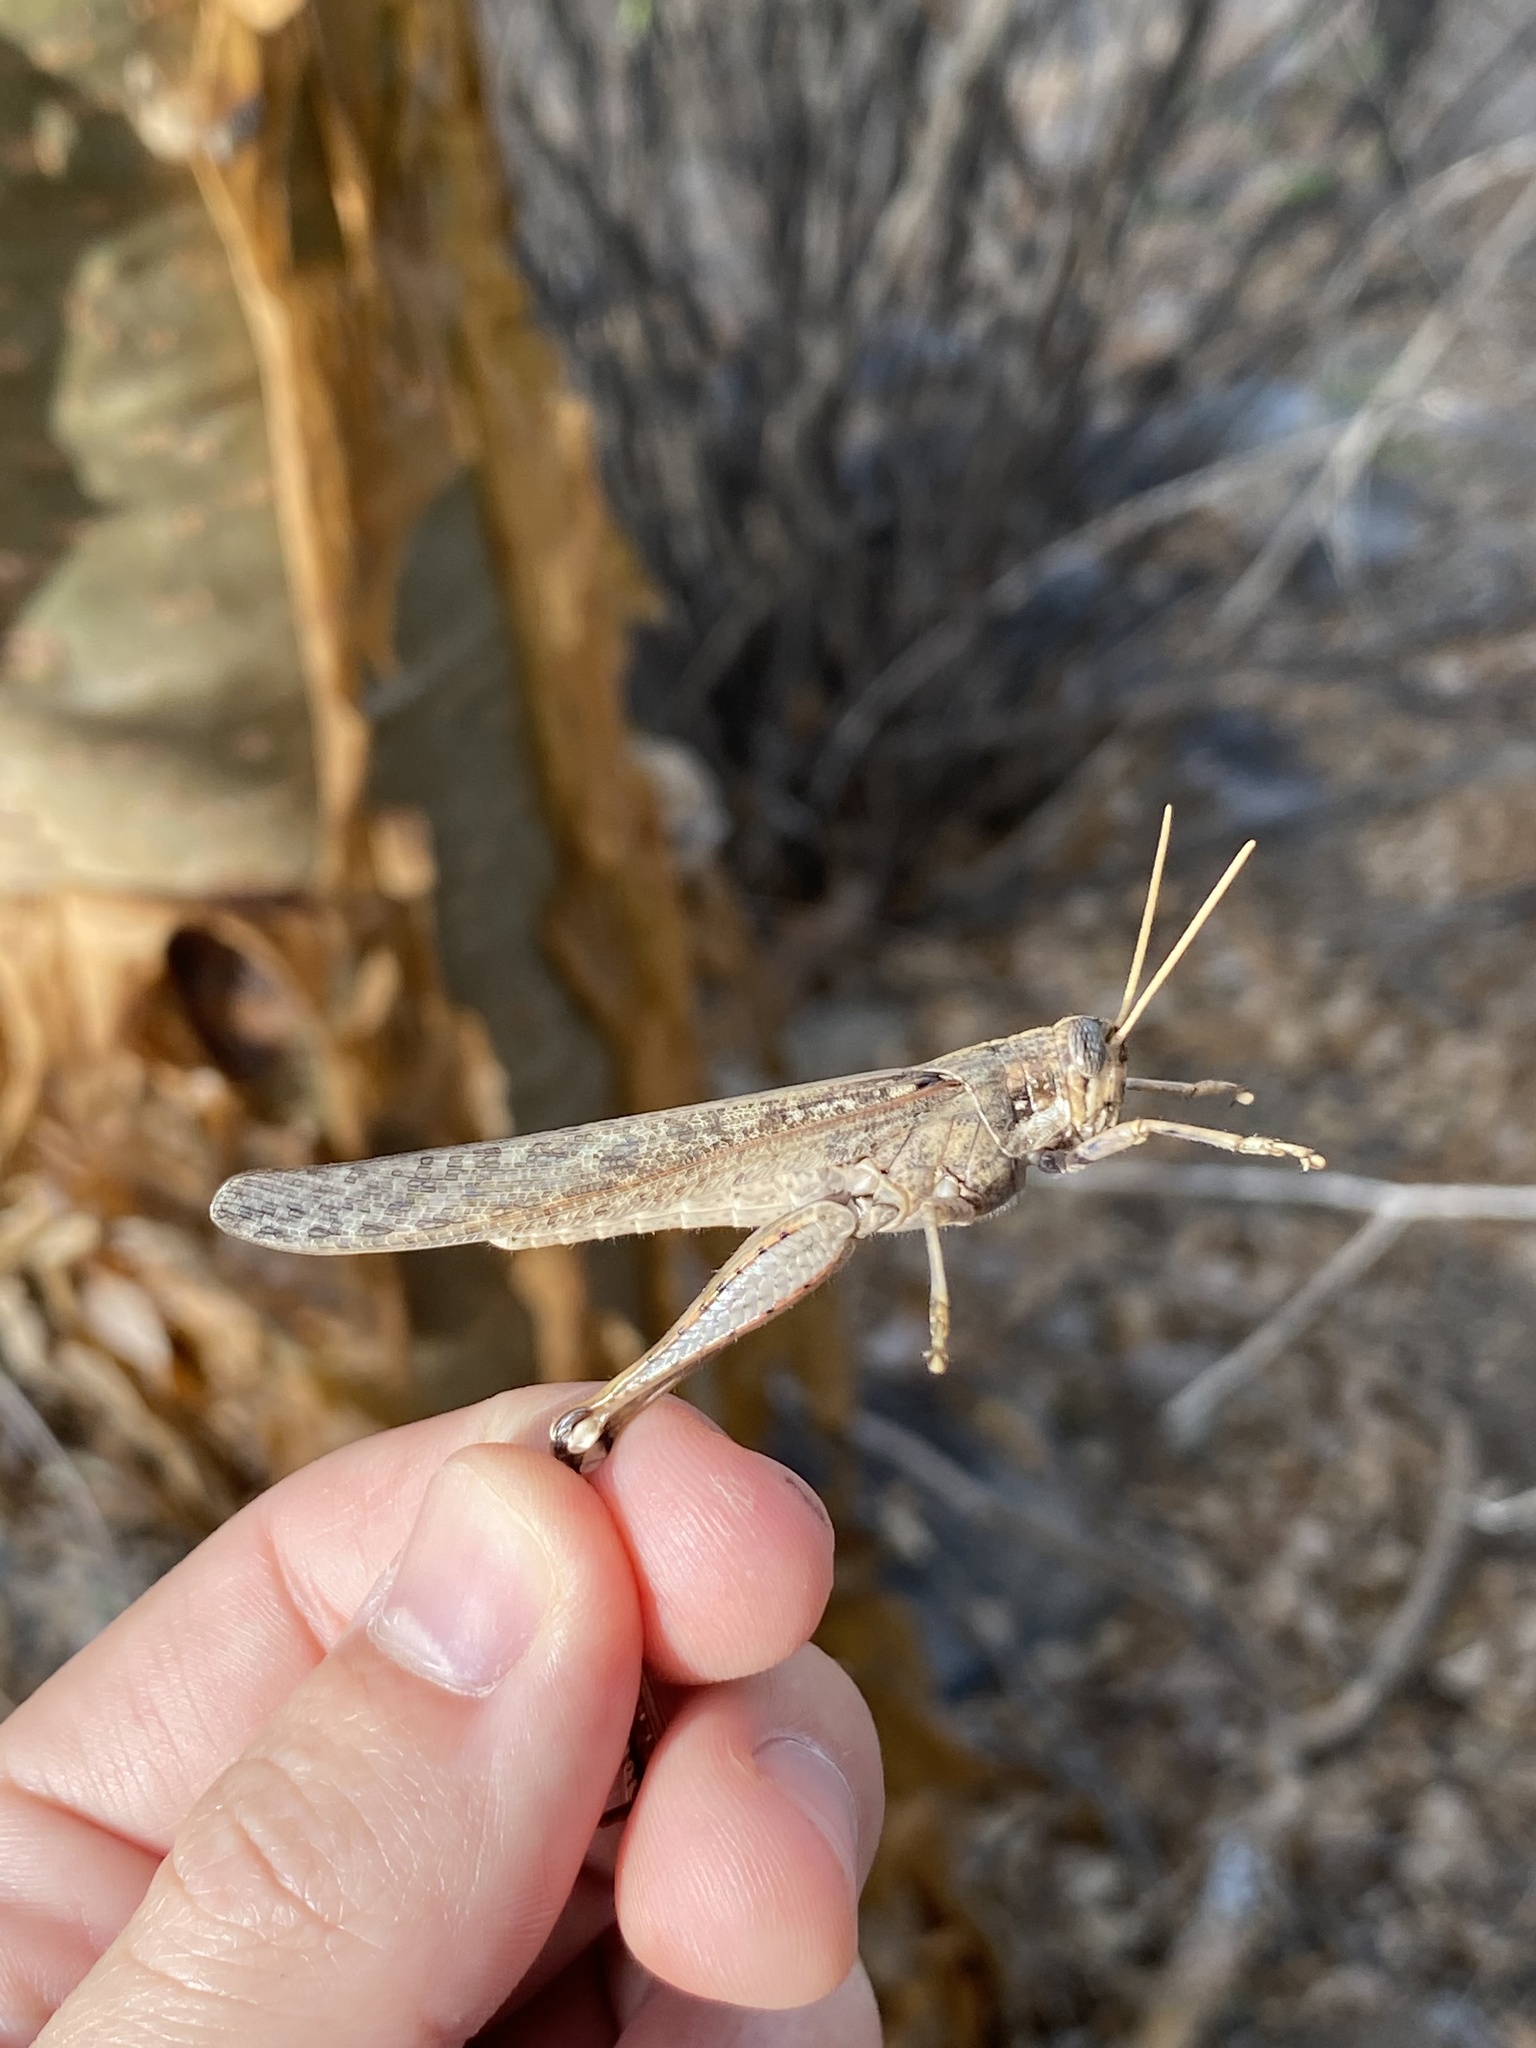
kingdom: Animalia
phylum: Arthropoda
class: Insecta
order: Orthoptera
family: Acrididae
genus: Schistocerca
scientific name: Schistocerca nitens
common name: Vagrant grasshopper
